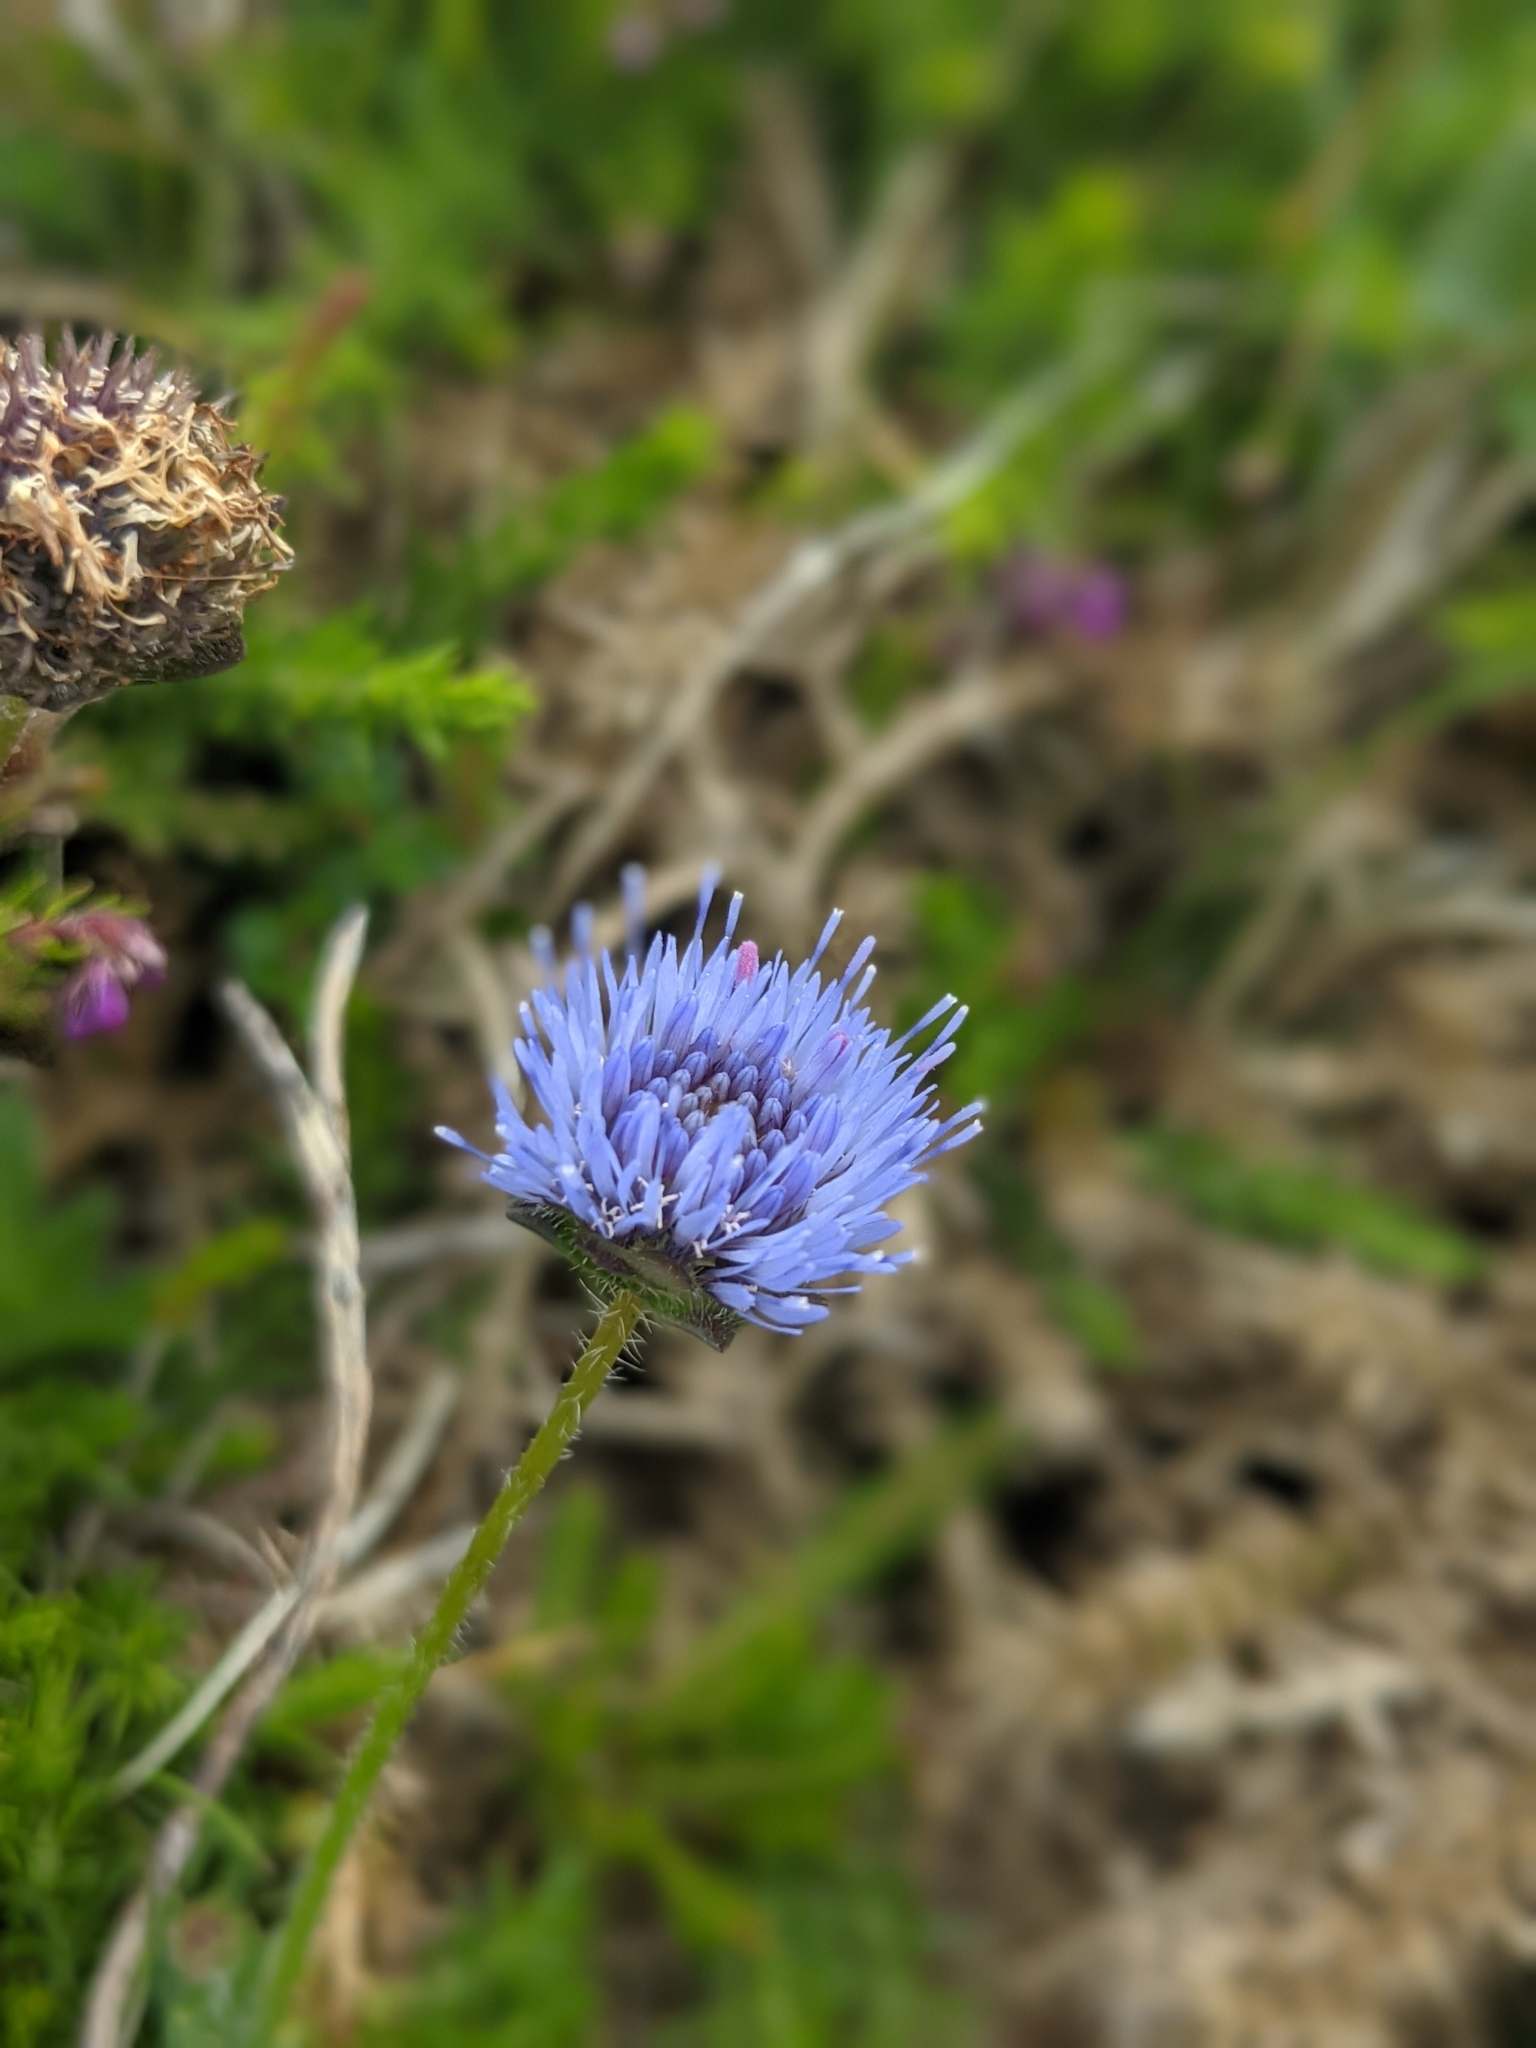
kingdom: Plantae
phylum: Tracheophyta
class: Magnoliopsida
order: Asterales
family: Campanulaceae
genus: Jasione
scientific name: Jasione montana
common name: Sheep's-bit
